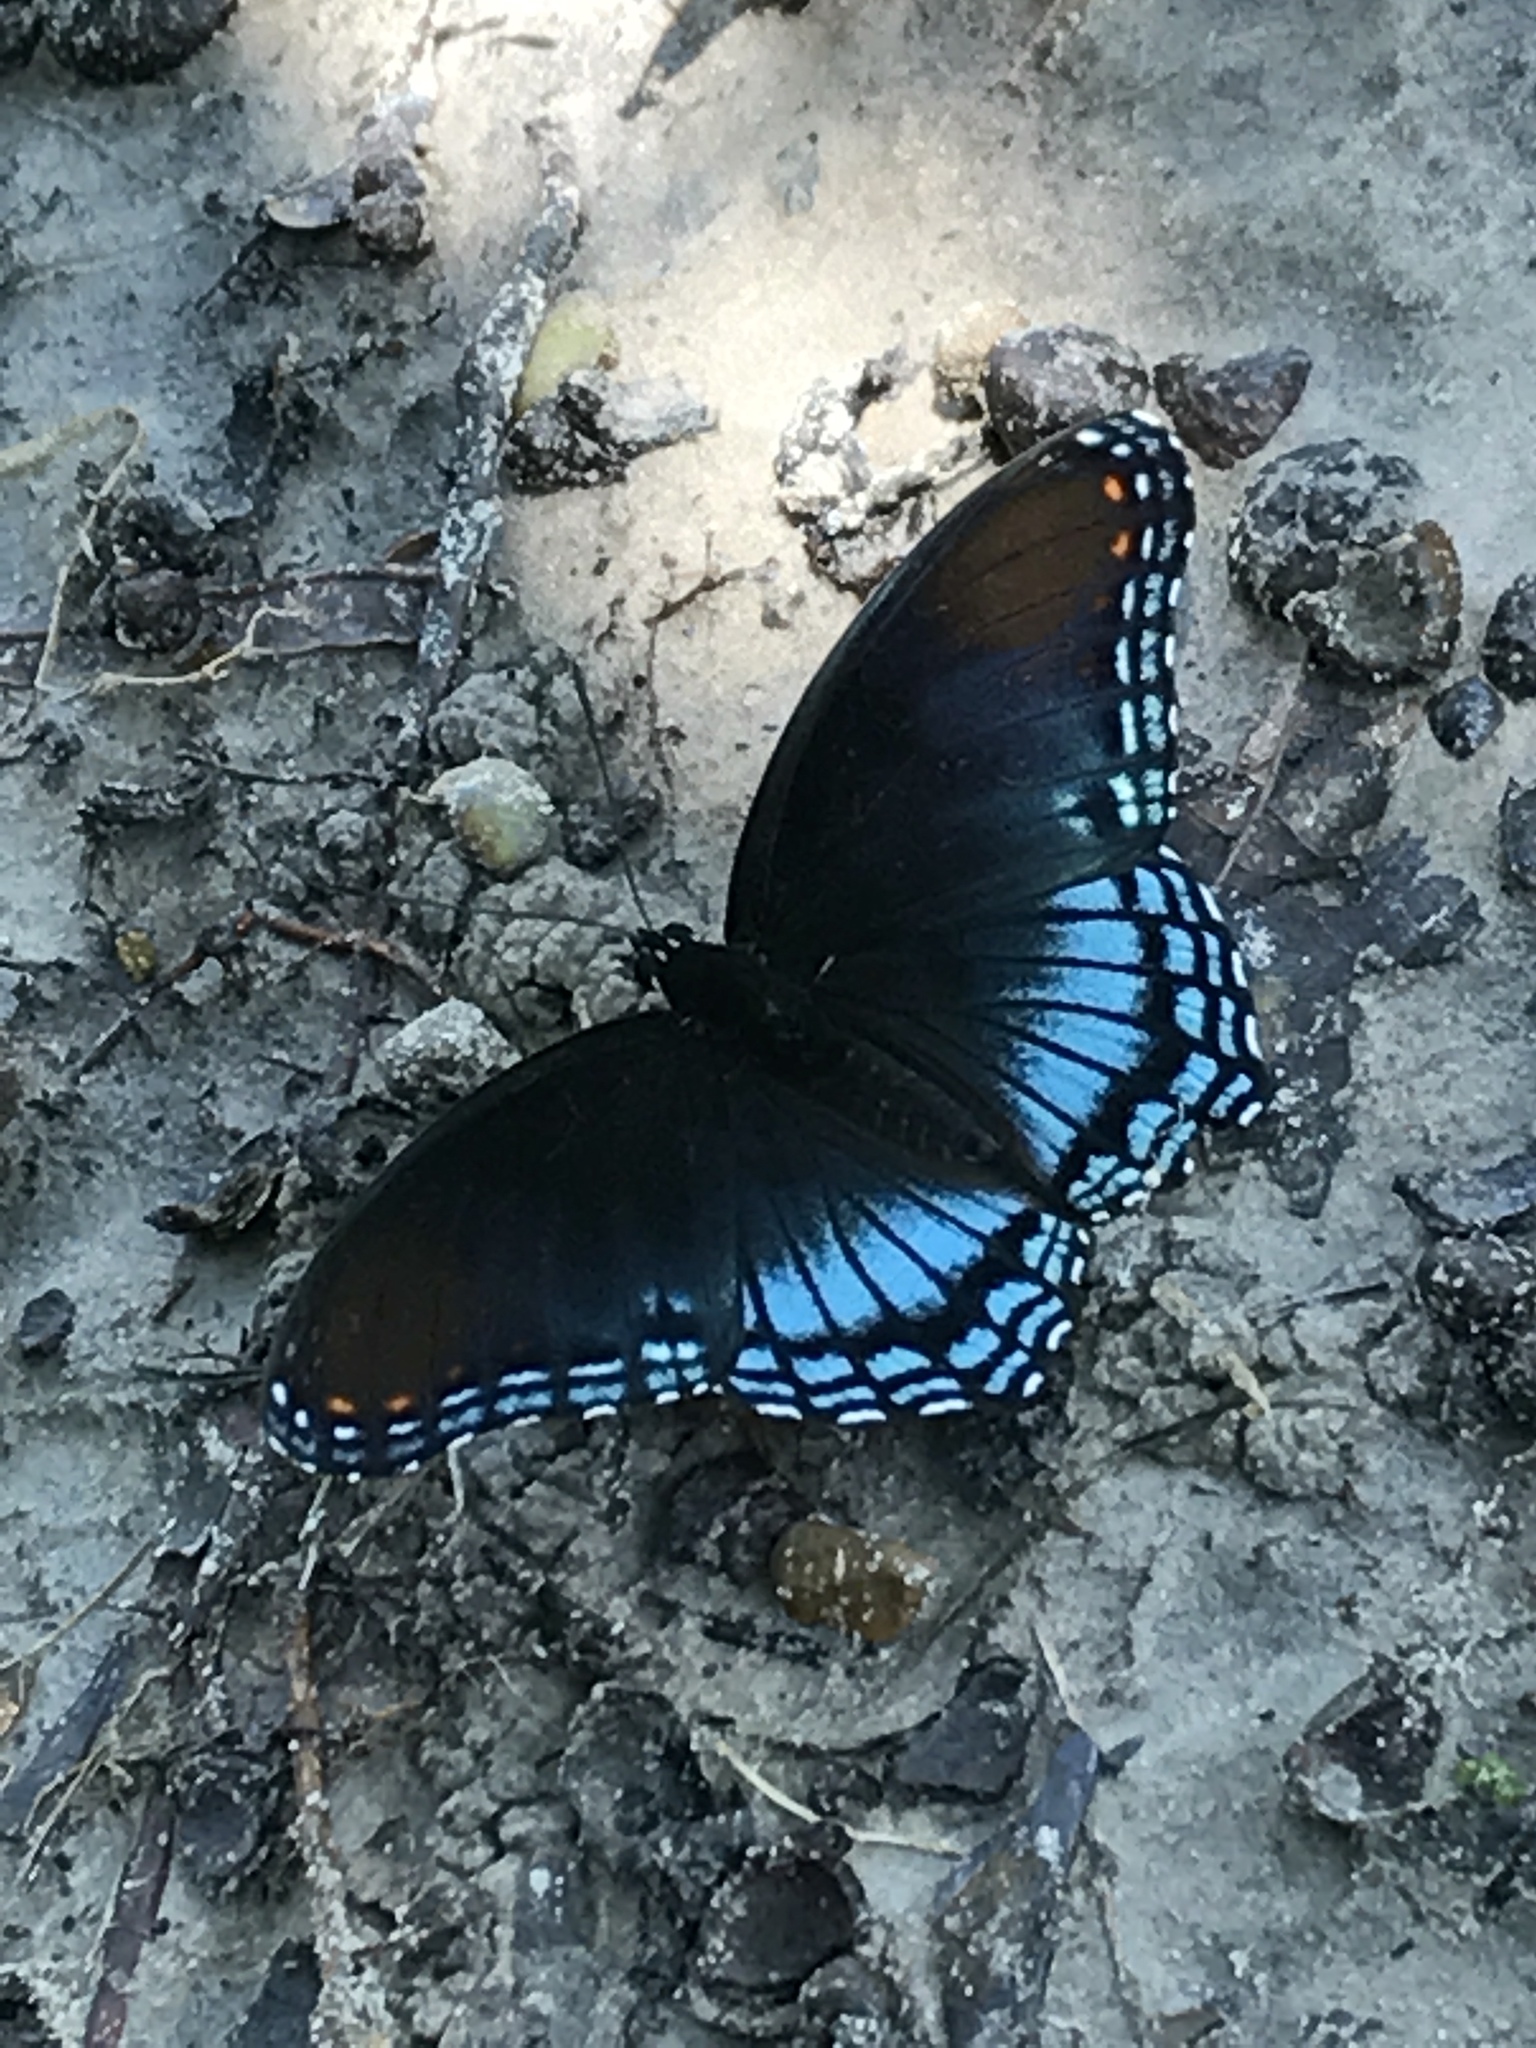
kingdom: Animalia
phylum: Arthropoda
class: Insecta
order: Lepidoptera
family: Nymphalidae
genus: Limenitis
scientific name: Limenitis arthemis
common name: Red-spotted admiral
